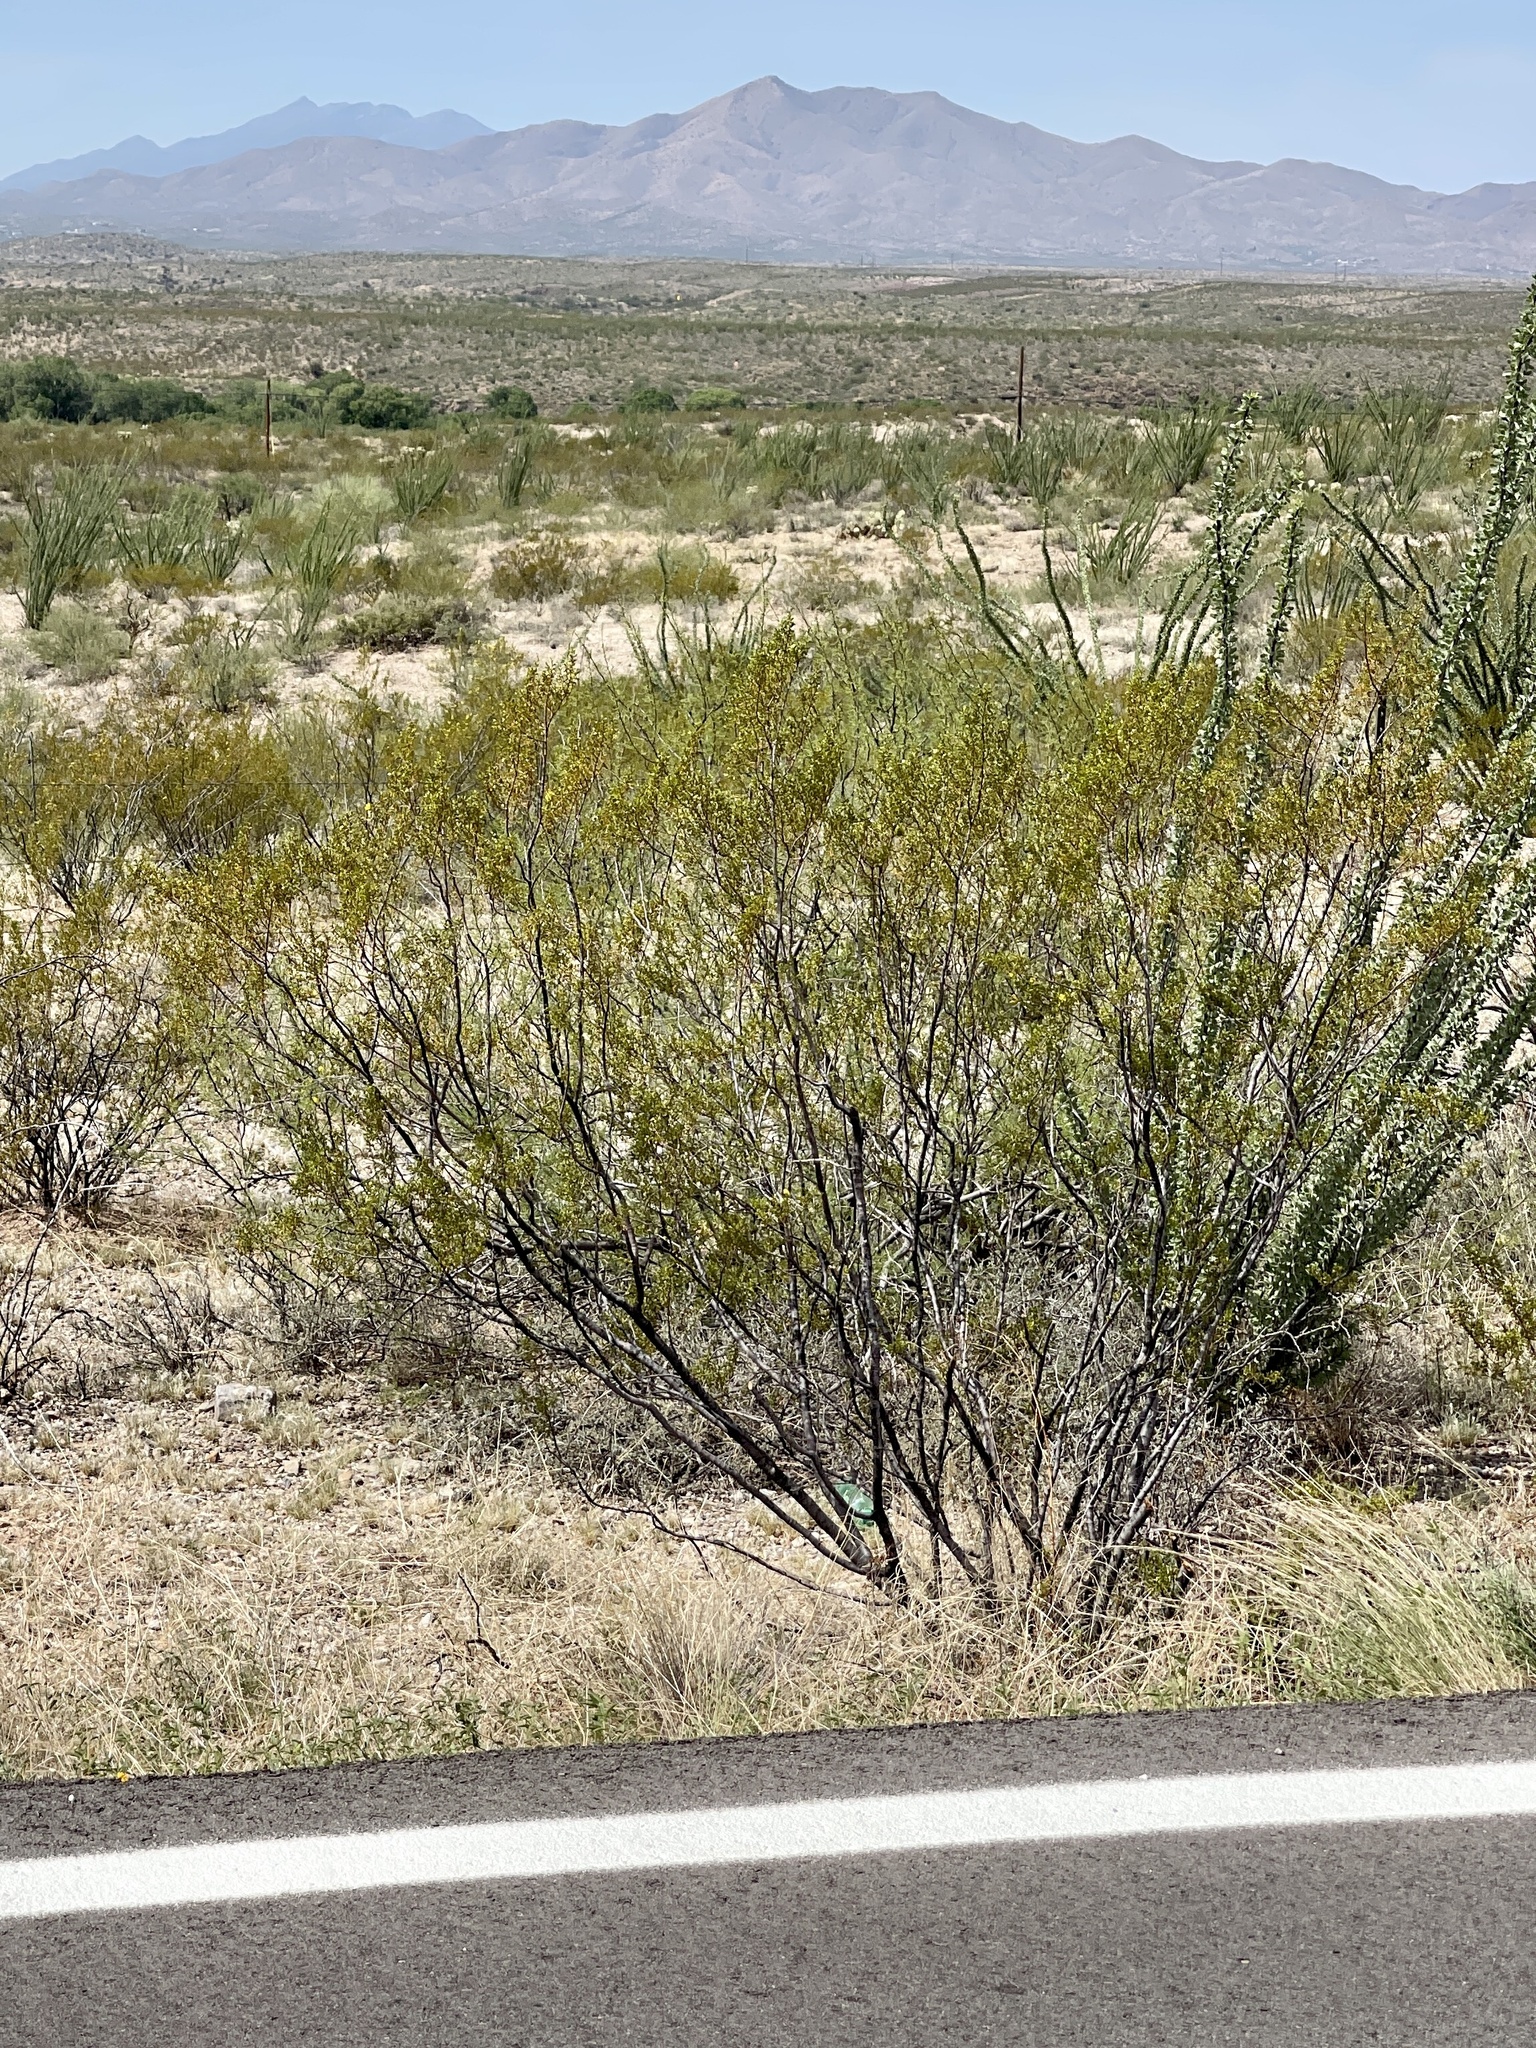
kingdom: Plantae
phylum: Tracheophyta
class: Magnoliopsida
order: Zygophyllales
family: Zygophyllaceae
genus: Larrea
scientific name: Larrea tridentata
